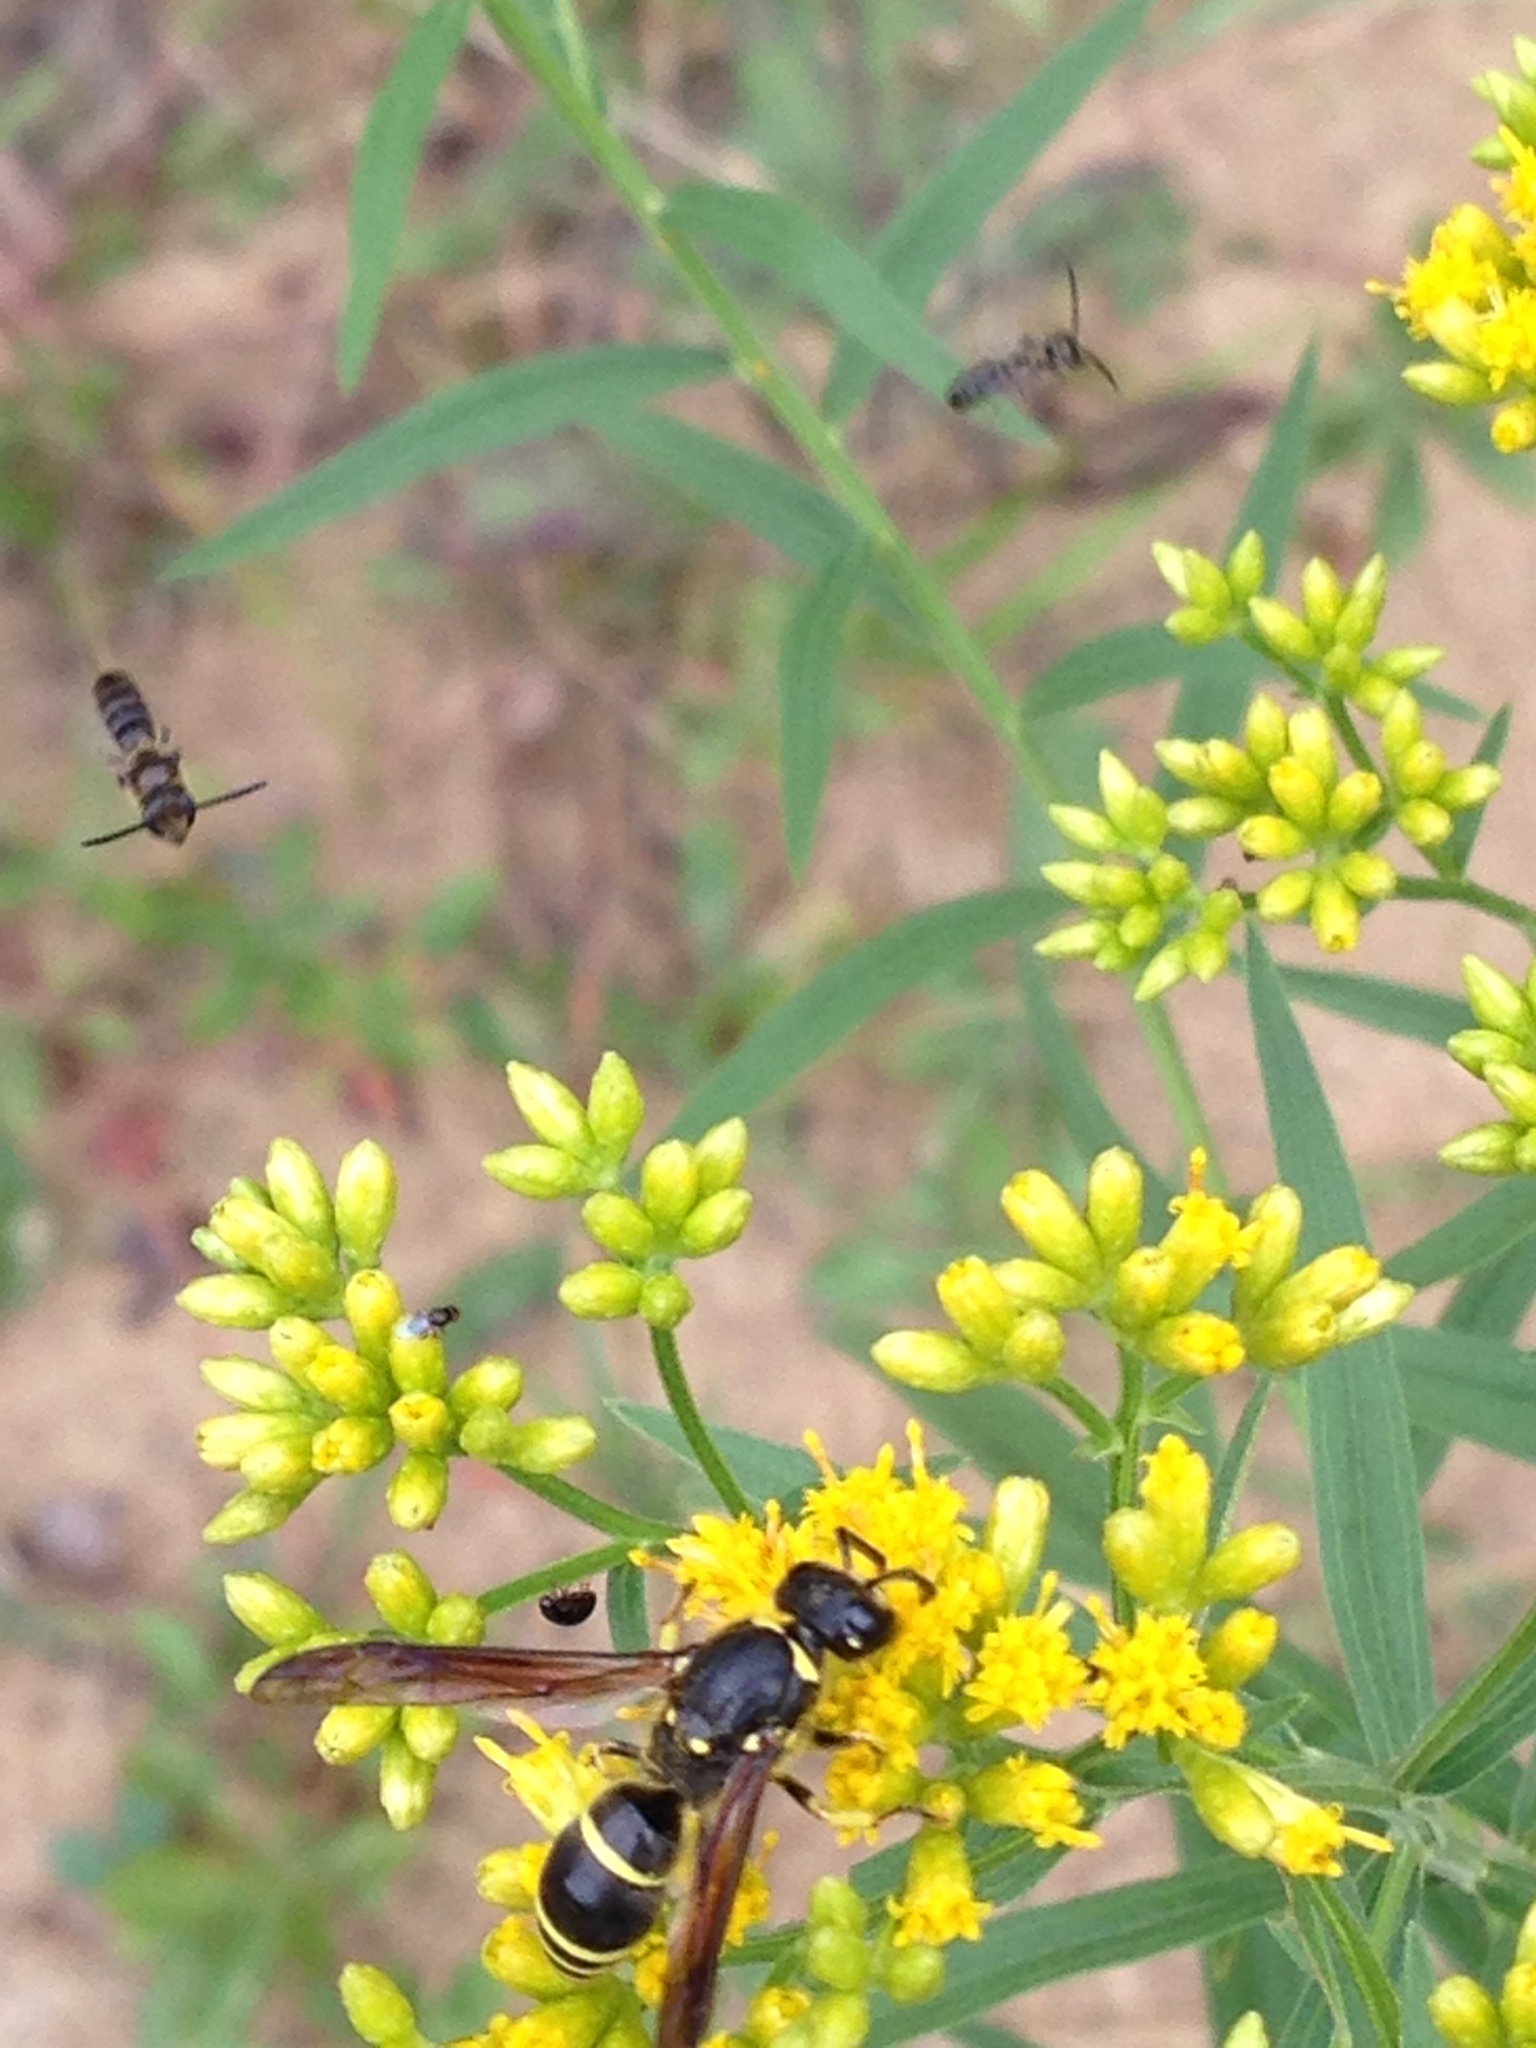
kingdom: Animalia
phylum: Arthropoda
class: Insecta
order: Hymenoptera
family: Vespidae
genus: Ancistrocerus
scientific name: Ancistrocerus
